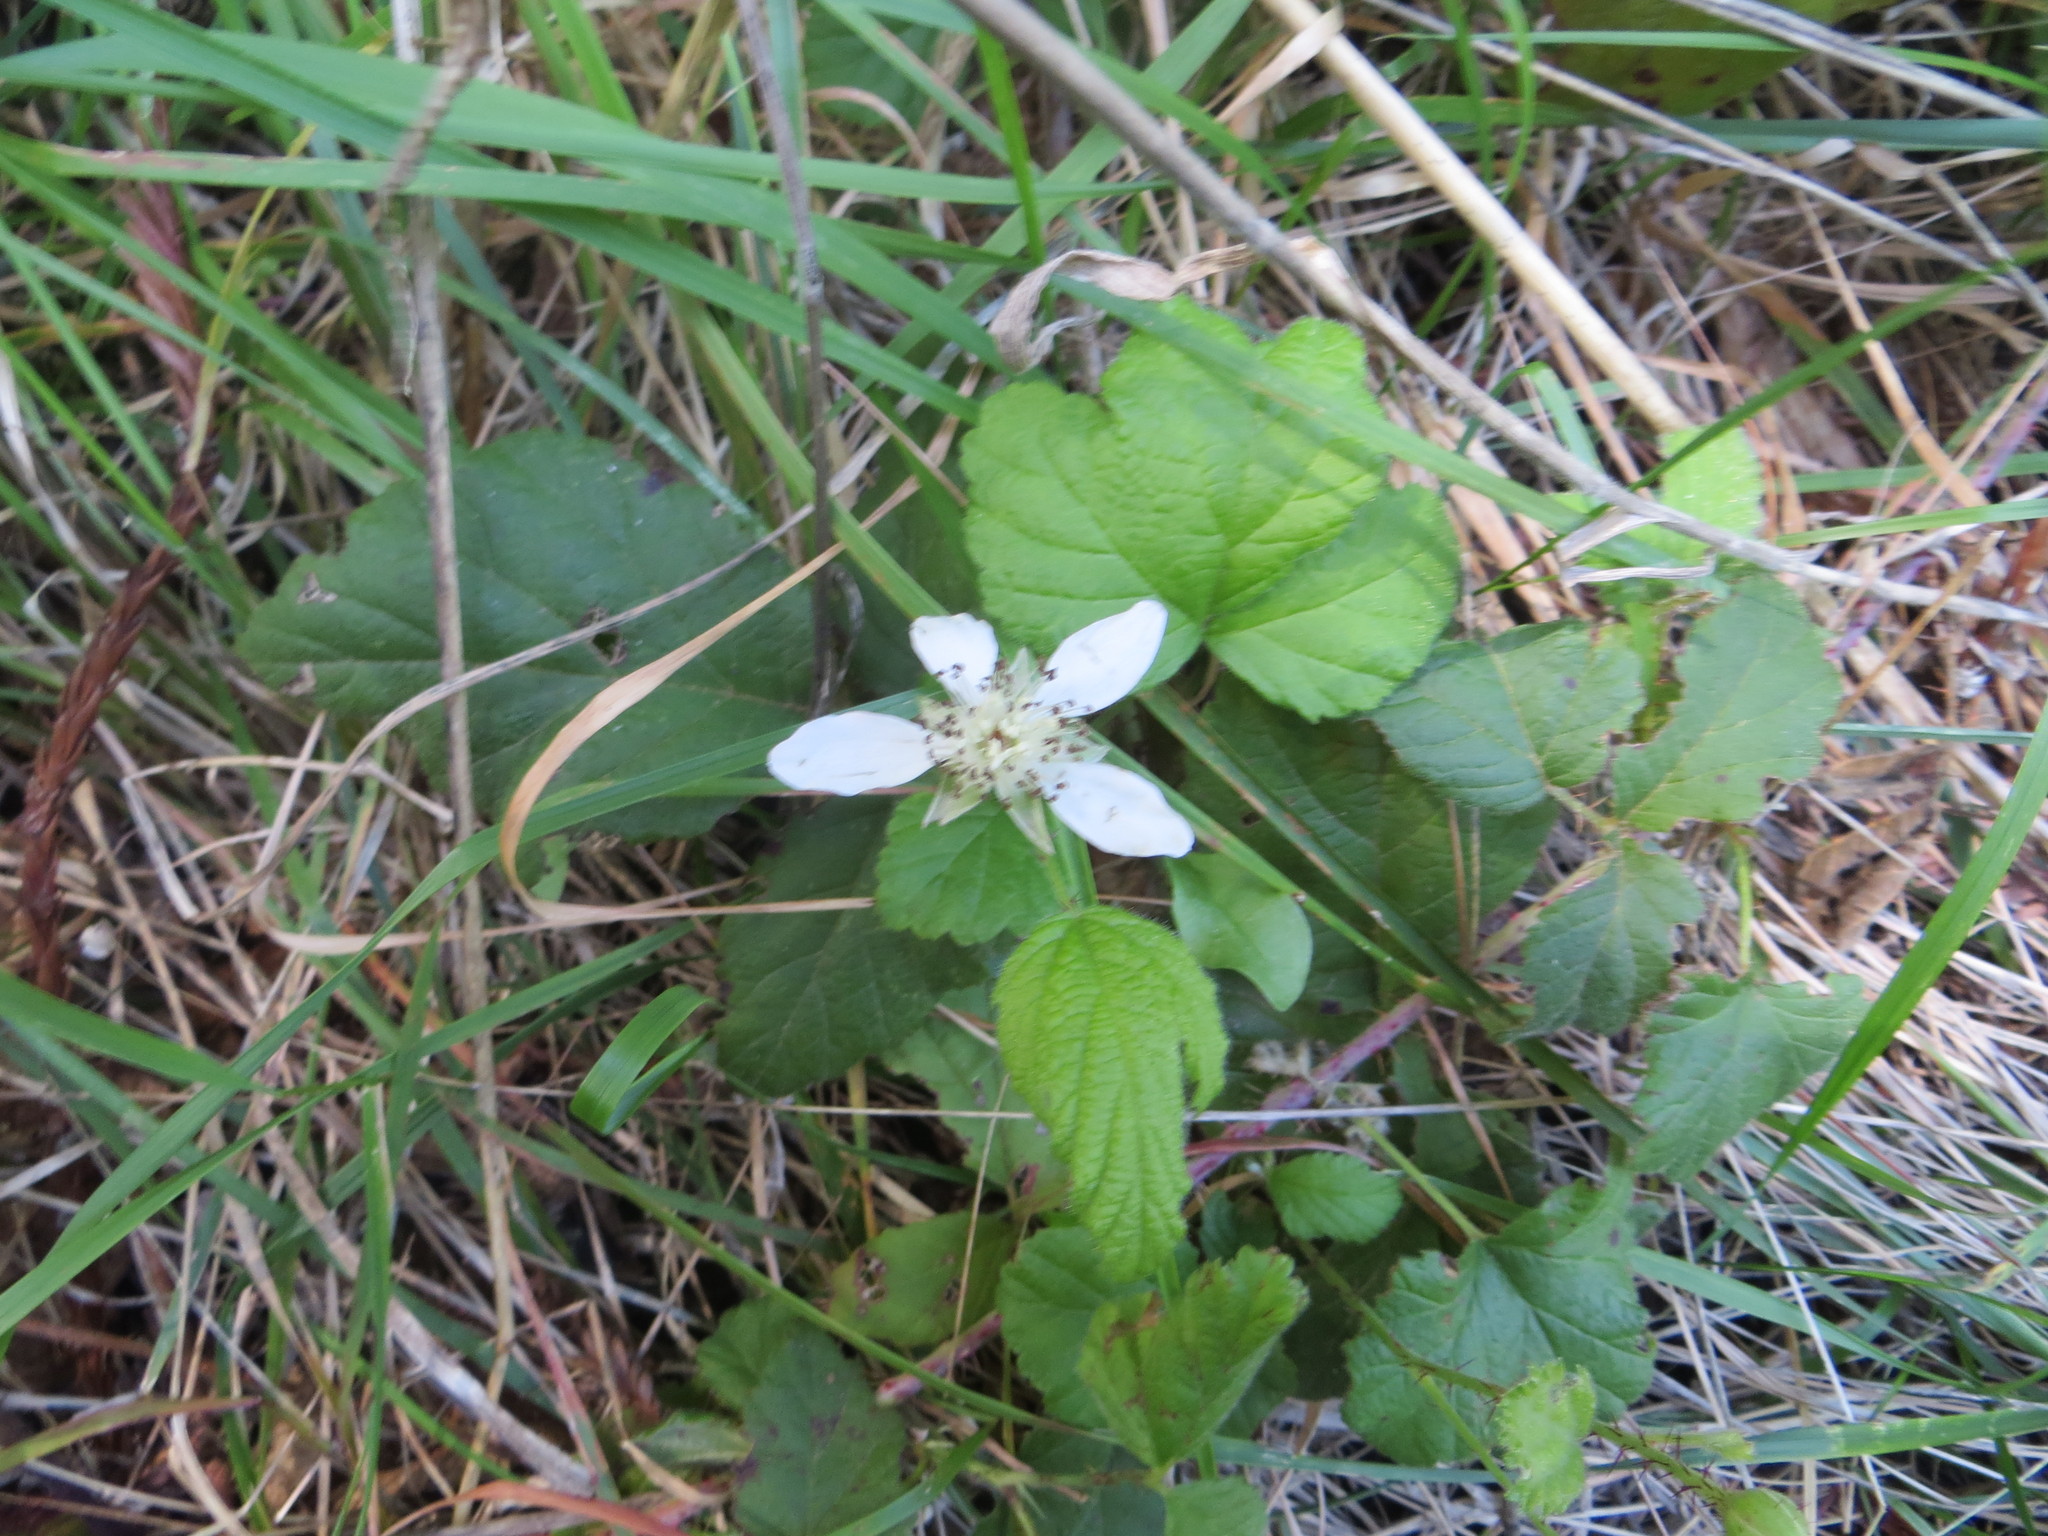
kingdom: Plantae
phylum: Tracheophyta
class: Magnoliopsida
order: Rosales
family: Rosaceae
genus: Rubus
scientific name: Rubus ursinus
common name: Pacific blackberry
